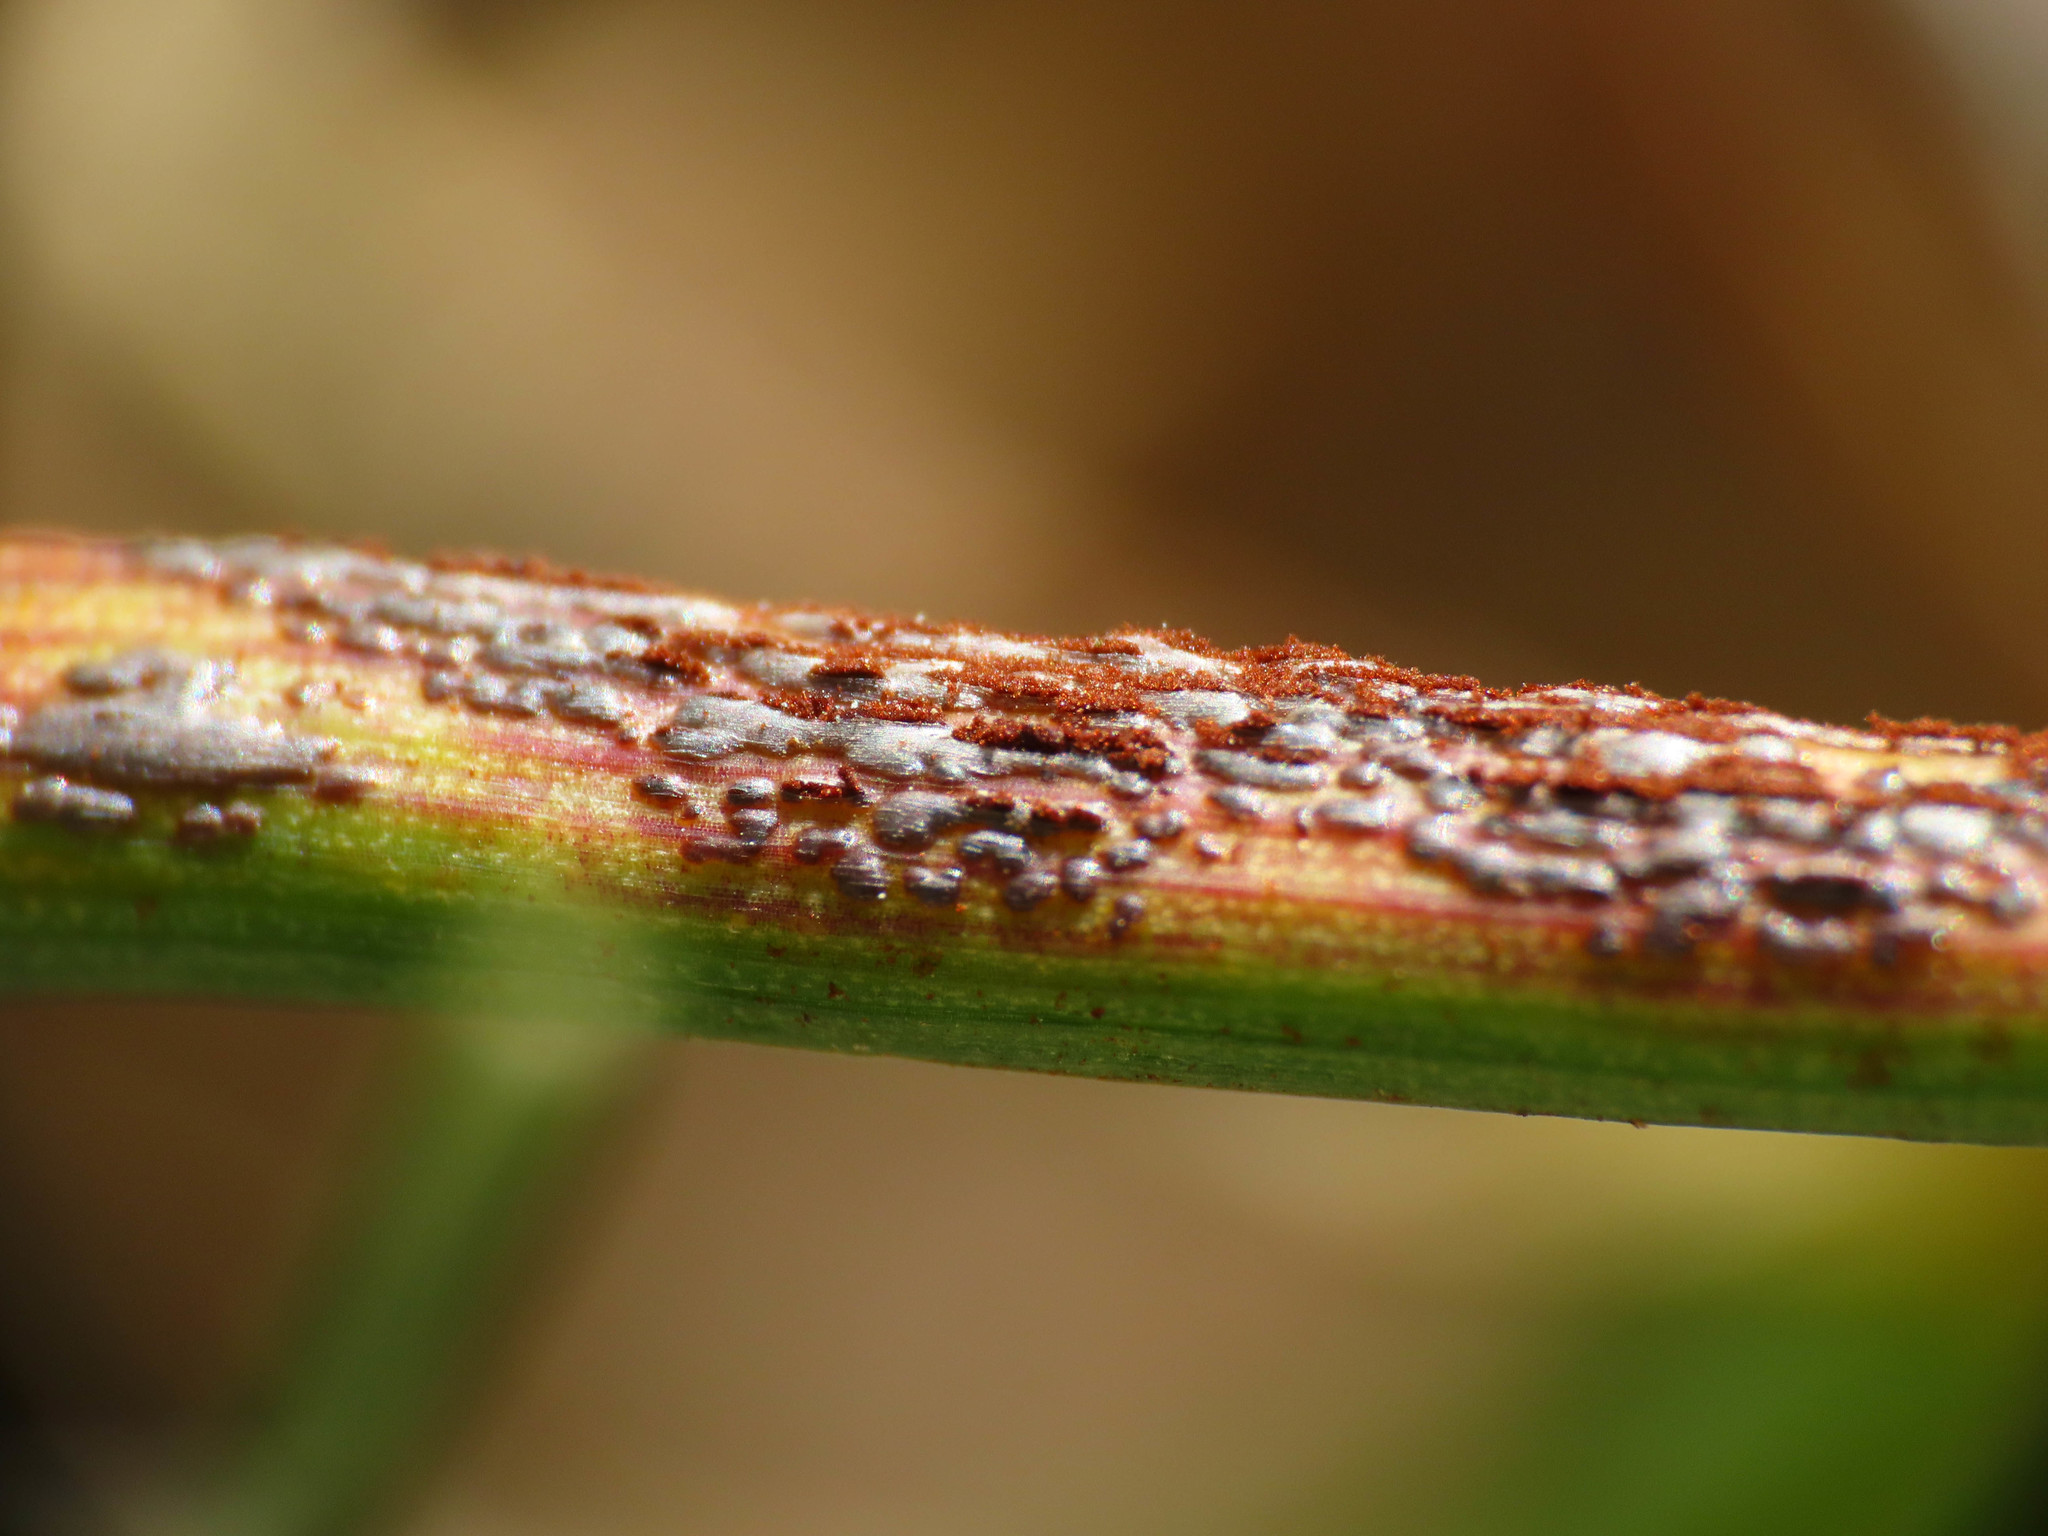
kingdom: Fungi
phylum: Basidiomycota
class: Pucciniomycetes
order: Pucciniales
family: Pucciniaceae
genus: Uromyces
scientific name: Uromyces muscari
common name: Bluebell rust
